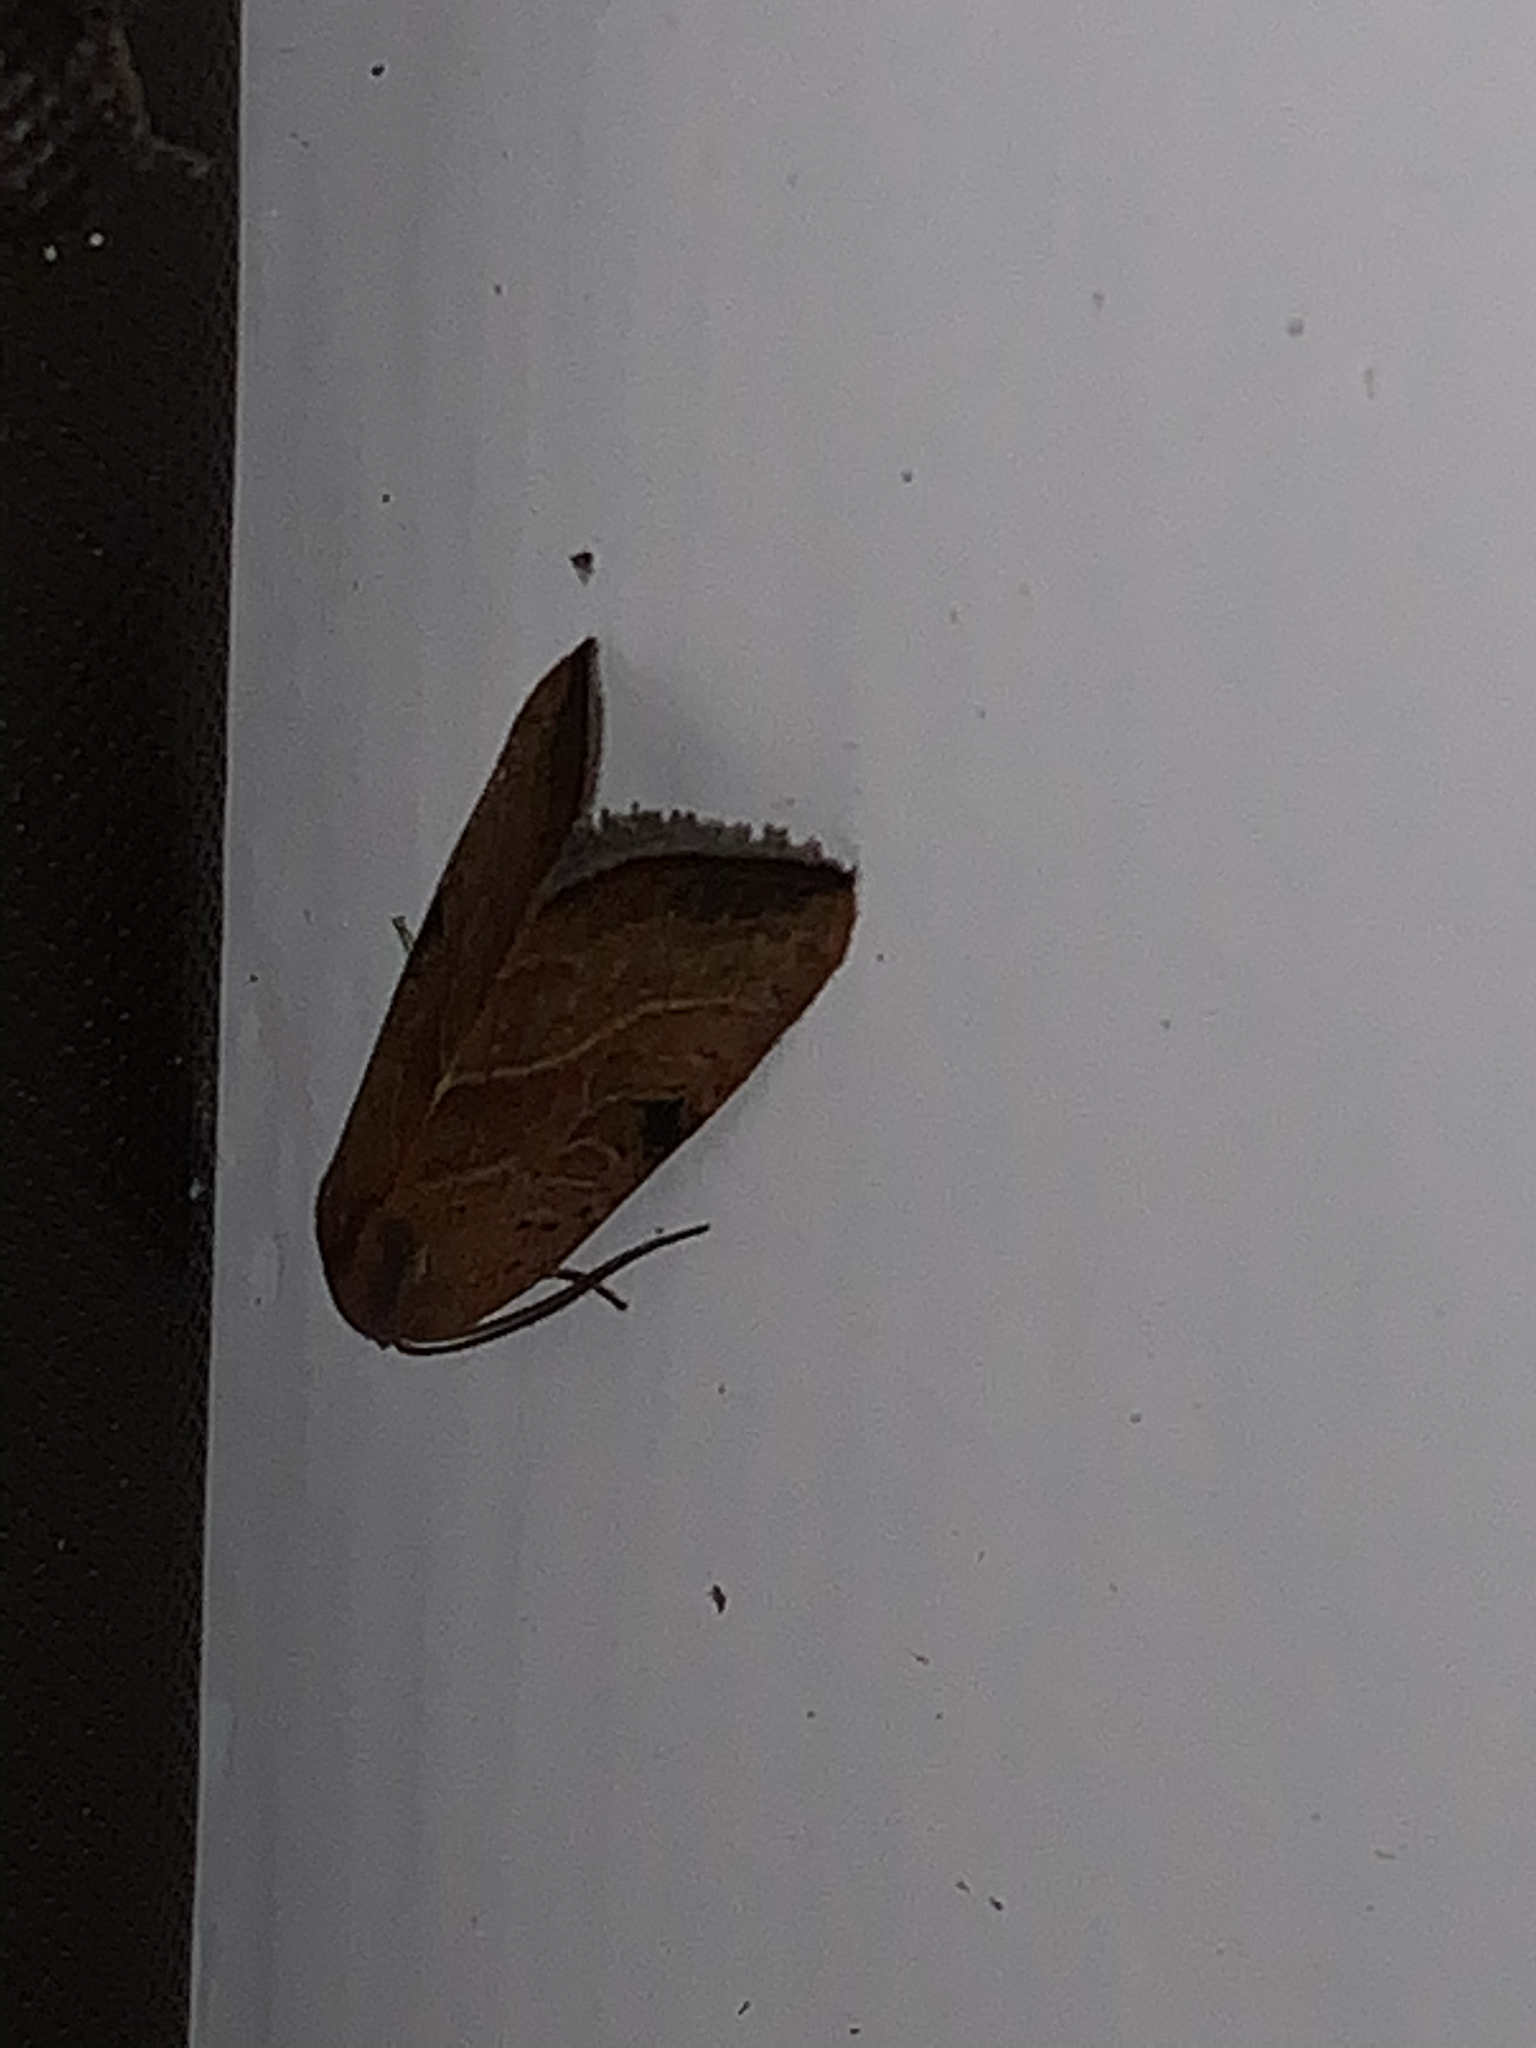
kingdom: Animalia
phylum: Arthropoda
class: Insecta
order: Lepidoptera
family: Noctuidae
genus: Galgula
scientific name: Galgula partita
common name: Wedgeling
